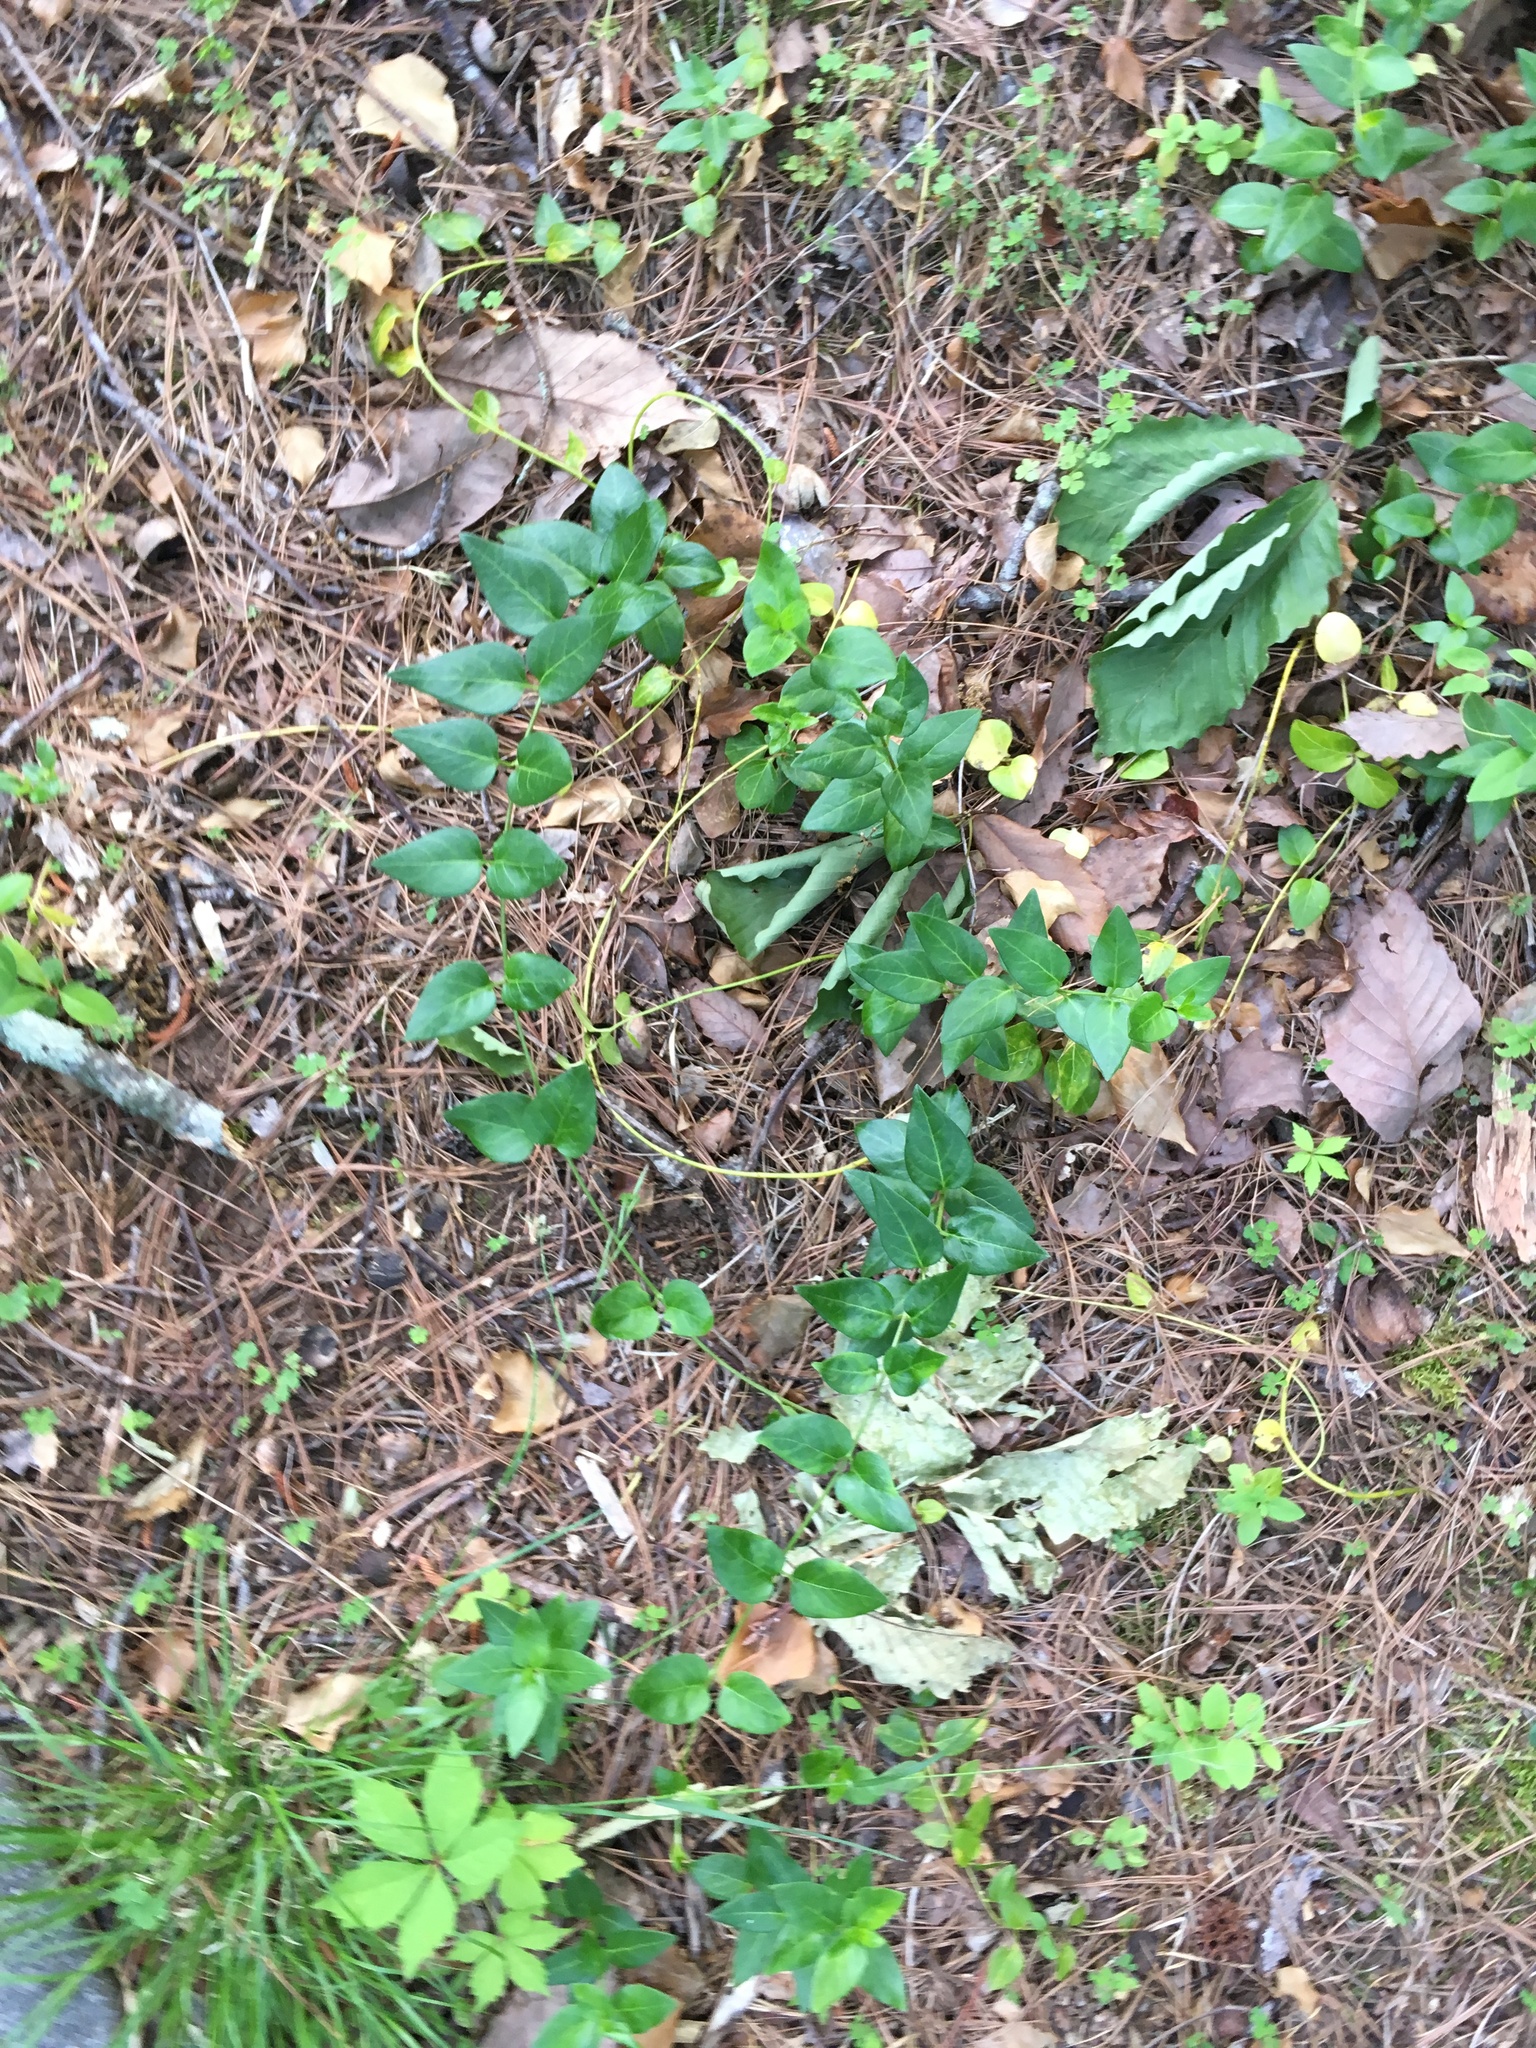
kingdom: Plantae
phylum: Tracheophyta
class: Magnoliopsida
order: Gentianales
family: Apocynaceae
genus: Vinca
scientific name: Vinca major
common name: Greater periwinkle
